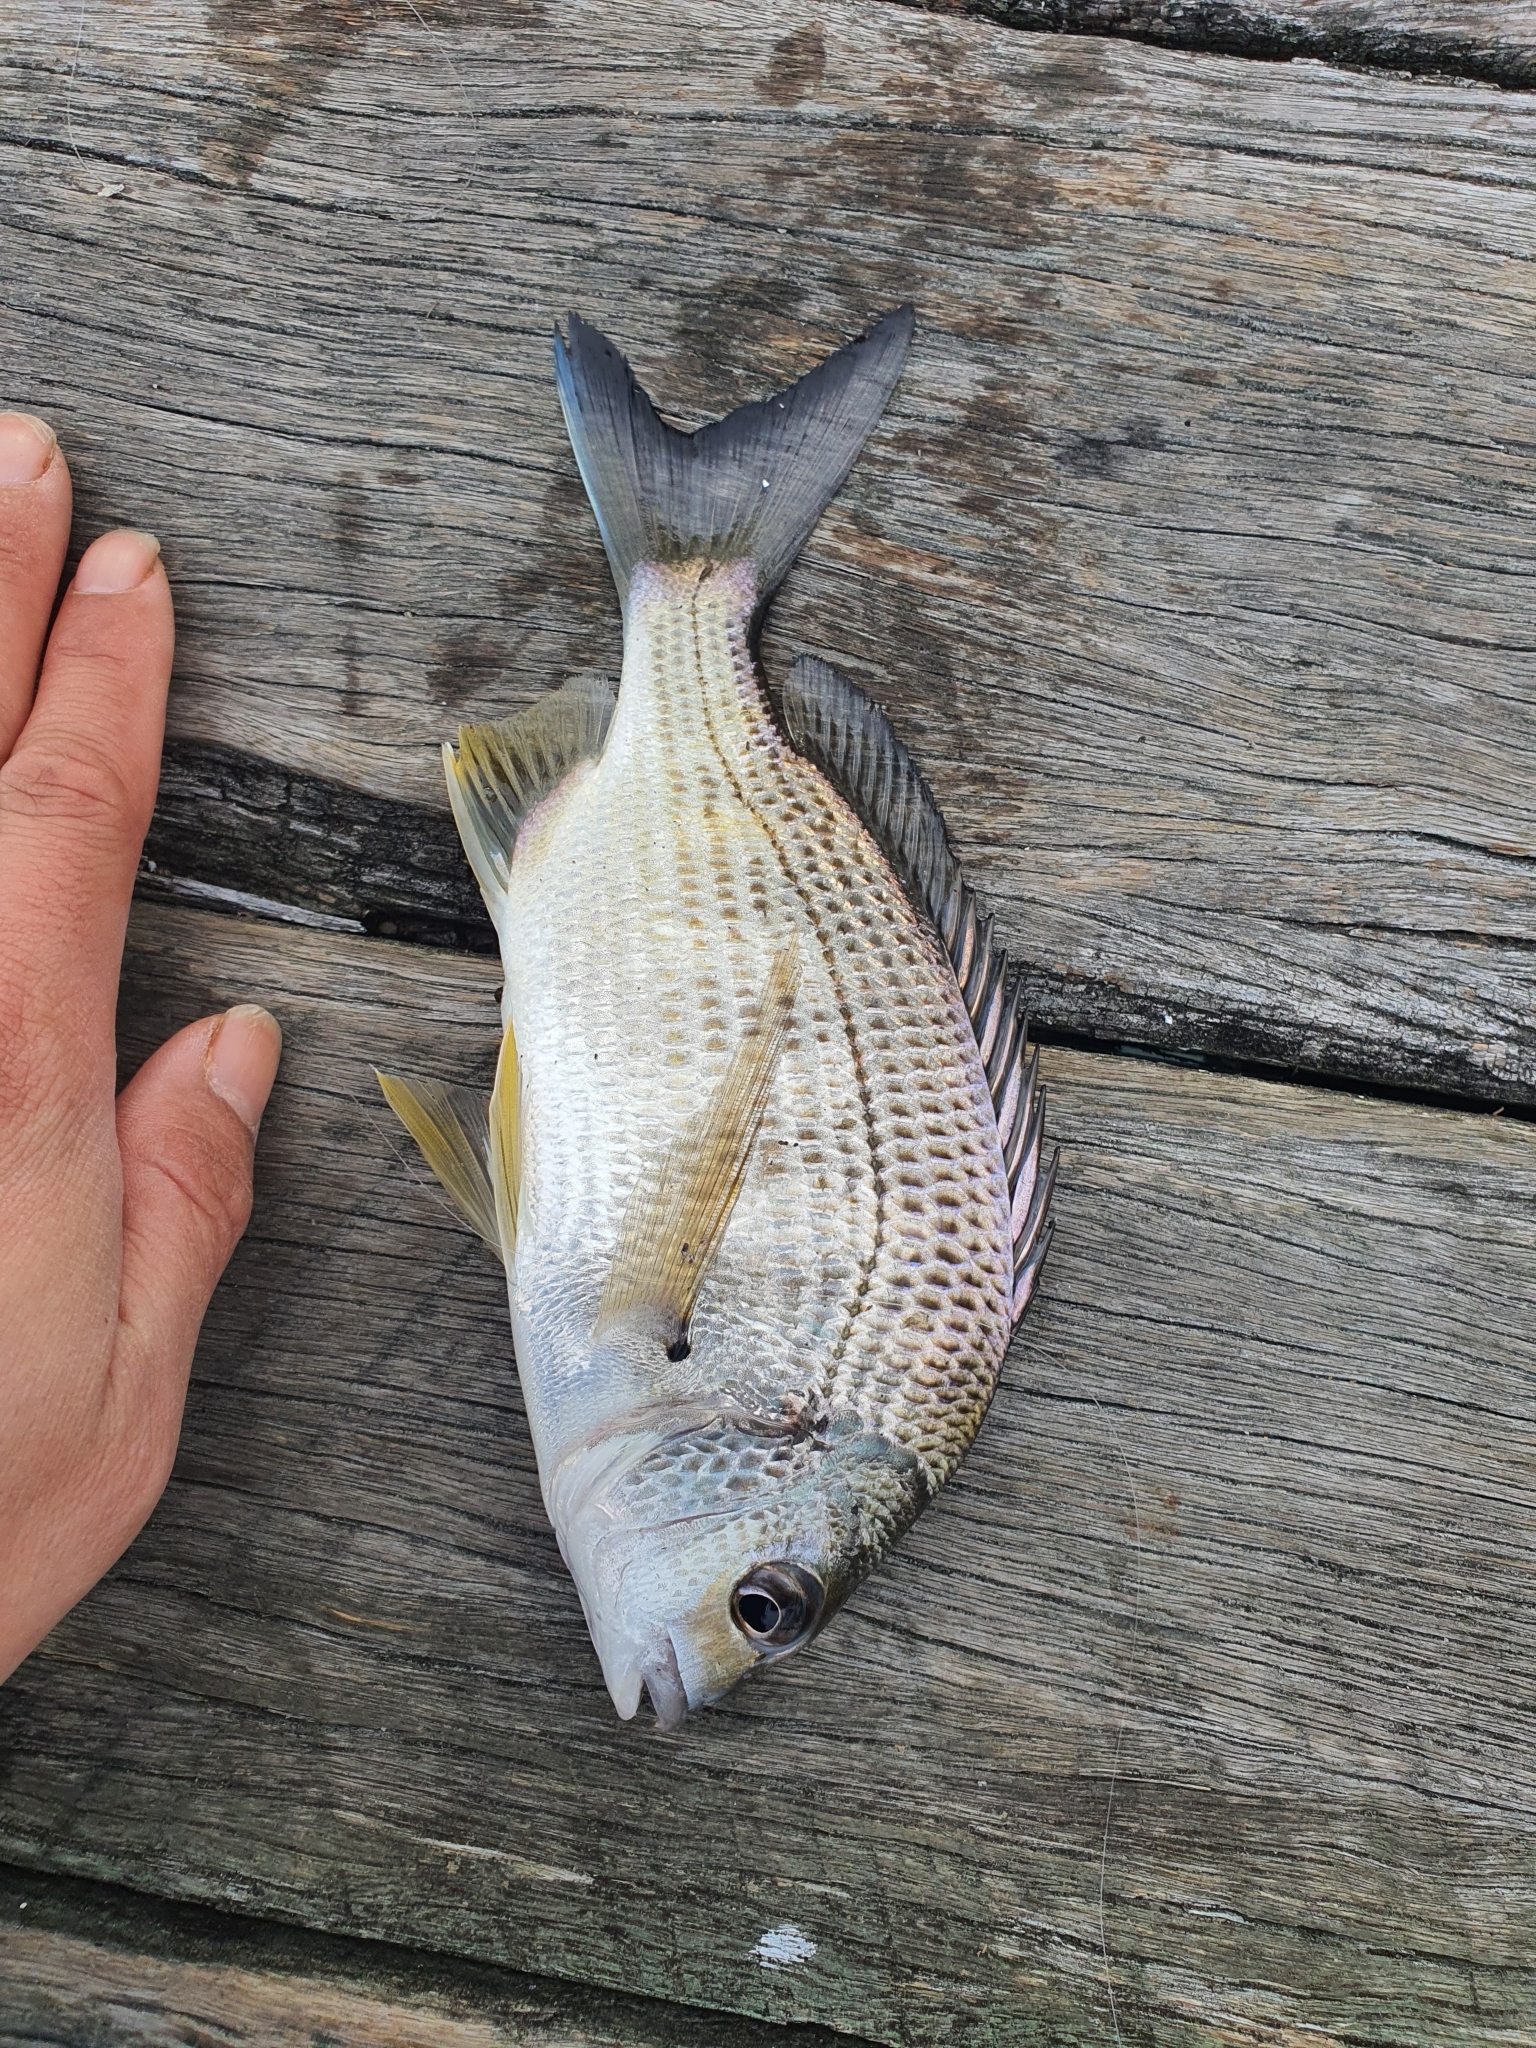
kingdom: Animalia
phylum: Chordata
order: Perciformes
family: Sparidae
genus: Acanthopagrus
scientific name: Acanthopagrus australis
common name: Surf bream
